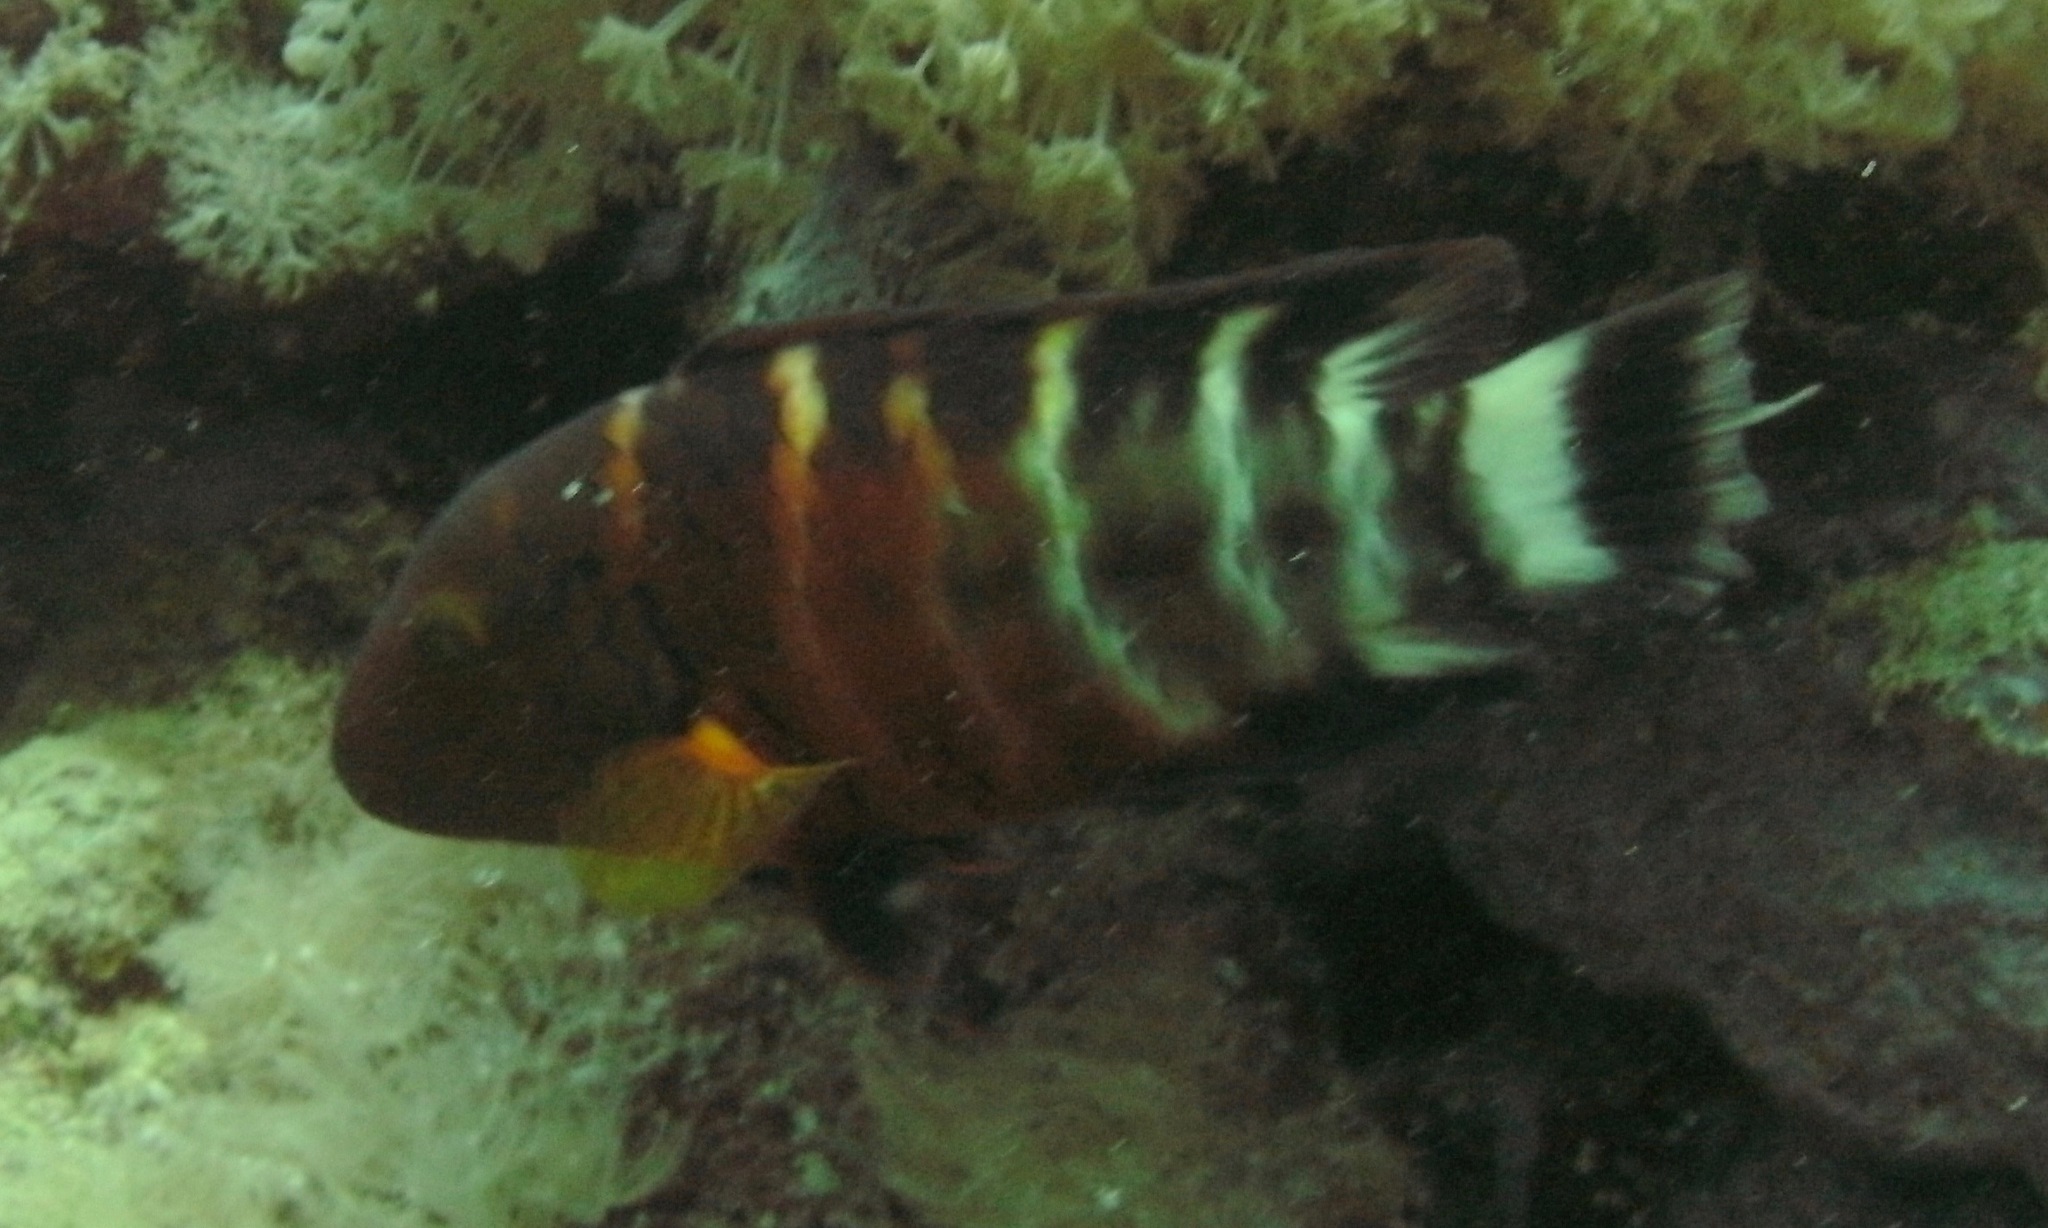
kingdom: Animalia
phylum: Chordata
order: Perciformes
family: Labridae
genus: Cheilinus
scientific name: Cheilinus fasciatus
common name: Red-breasted wrasse
